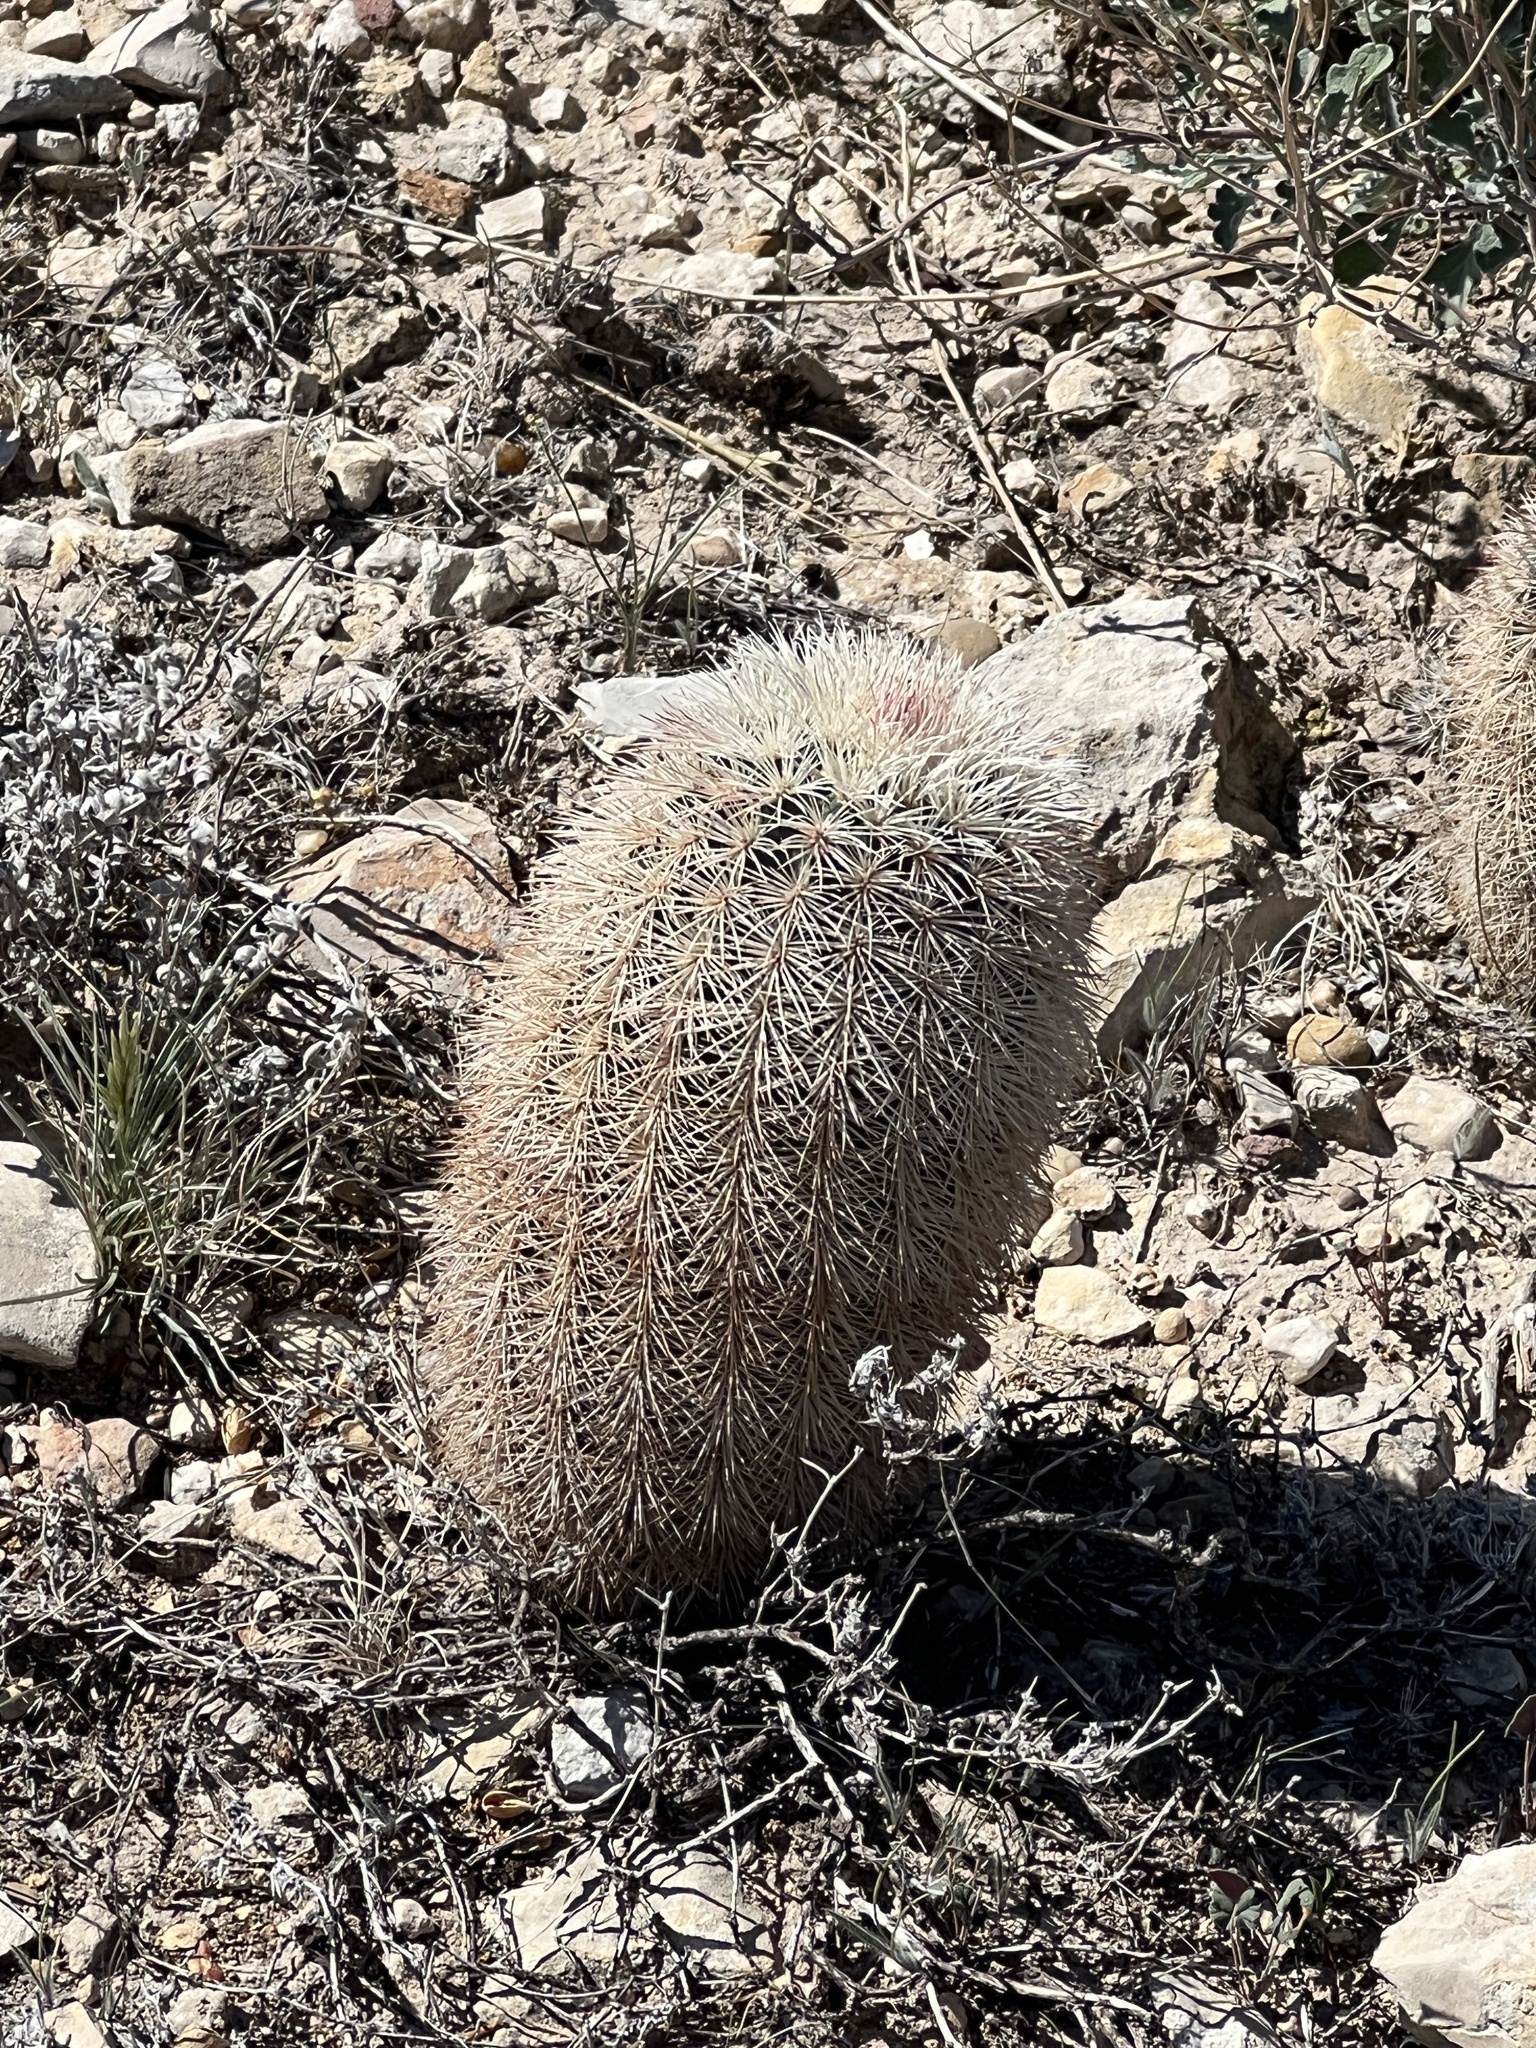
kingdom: Plantae
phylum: Tracheophyta
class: Magnoliopsida
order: Caryophyllales
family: Cactaceae
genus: Echinocereus
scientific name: Echinocereus dasyacanthus
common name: Spiny hedgehog cactus
